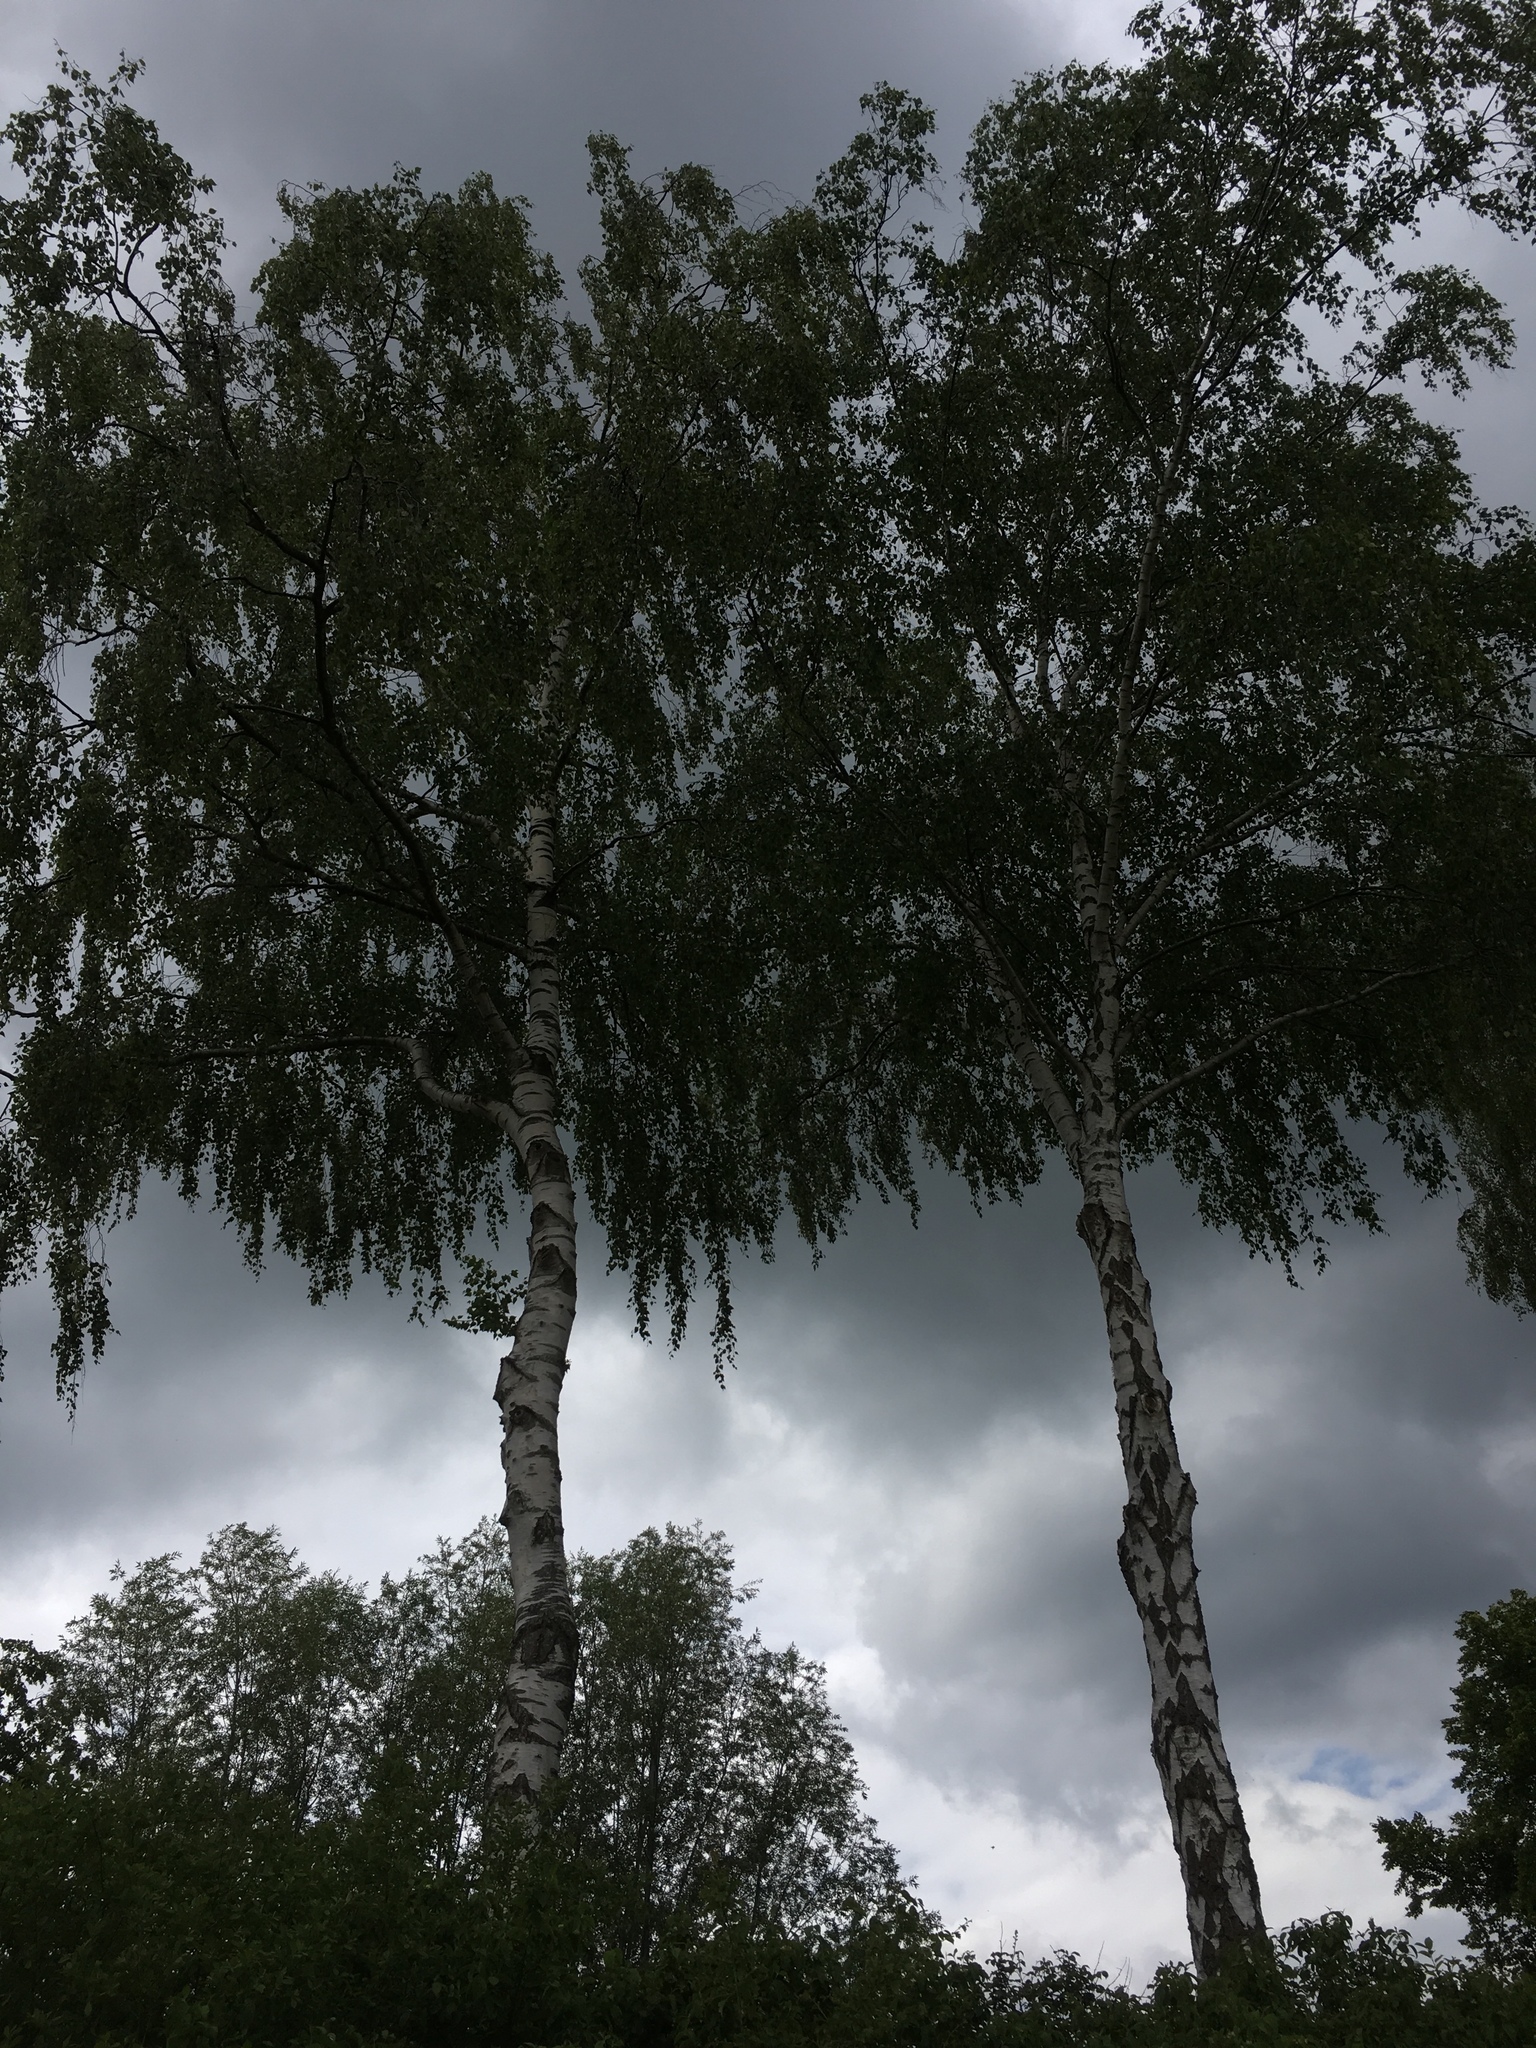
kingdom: Plantae
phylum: Tracheophyta
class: Magnoliopsida
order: Fagales
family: Betulaceae
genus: Betula
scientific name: Betula pendula
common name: Silver birch
